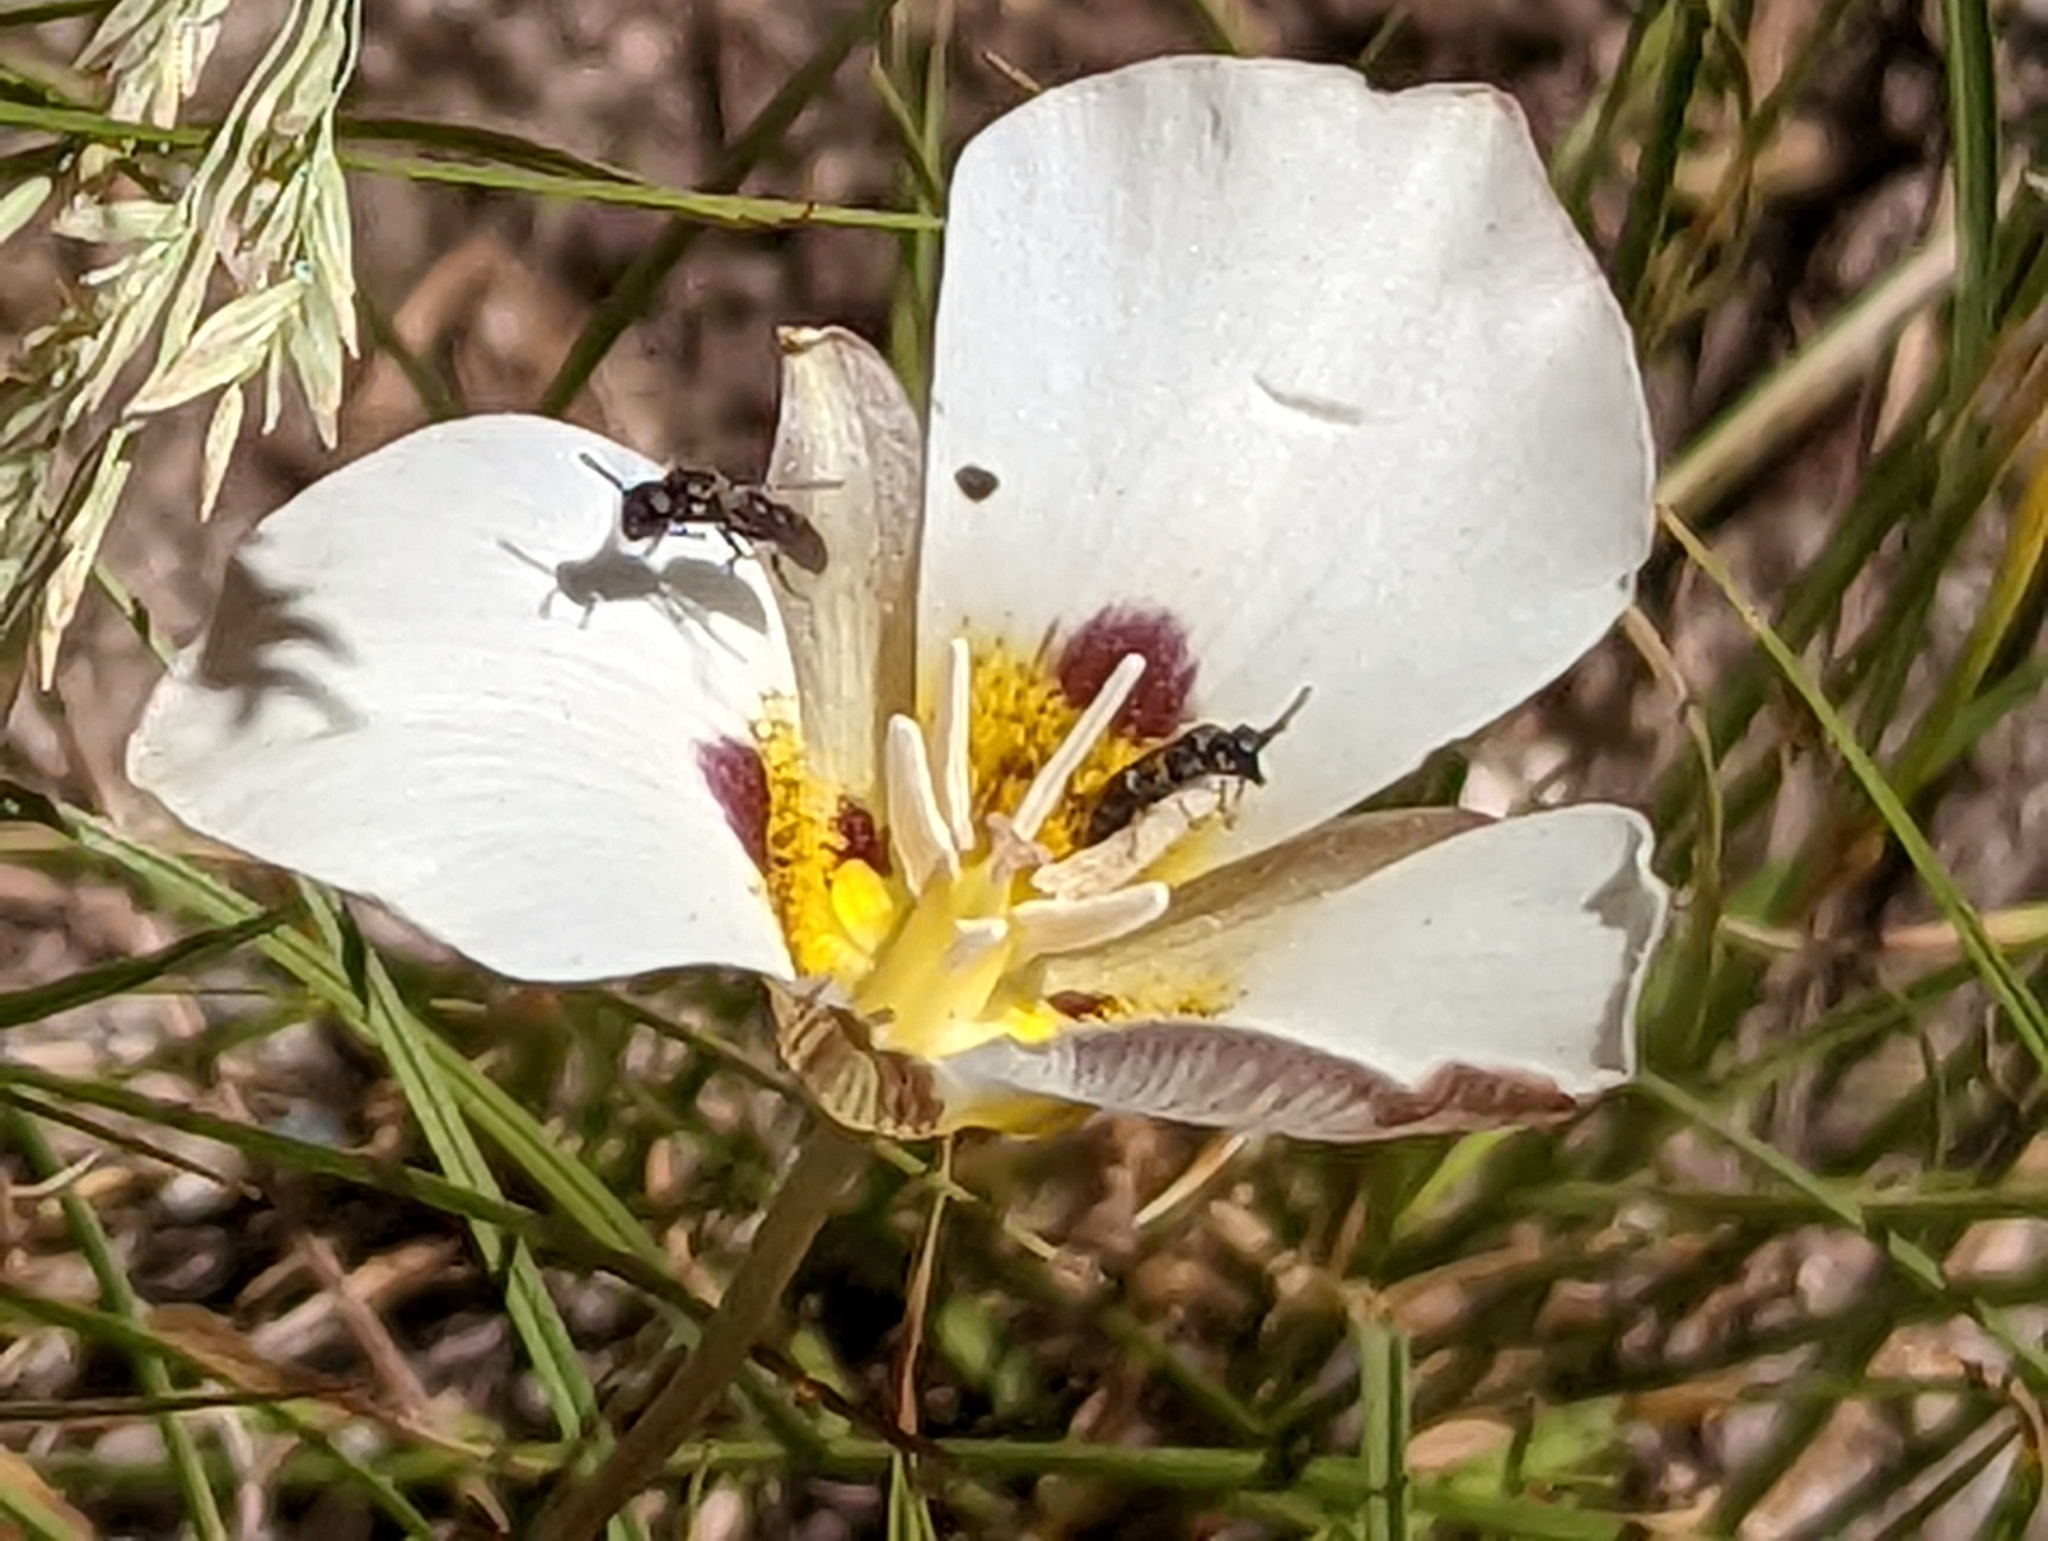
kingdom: Plantae
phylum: Tracheophyta
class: Liliopsida
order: Liliales
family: Liliaceae
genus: Calochortus
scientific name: Calochortus leichtlinii
